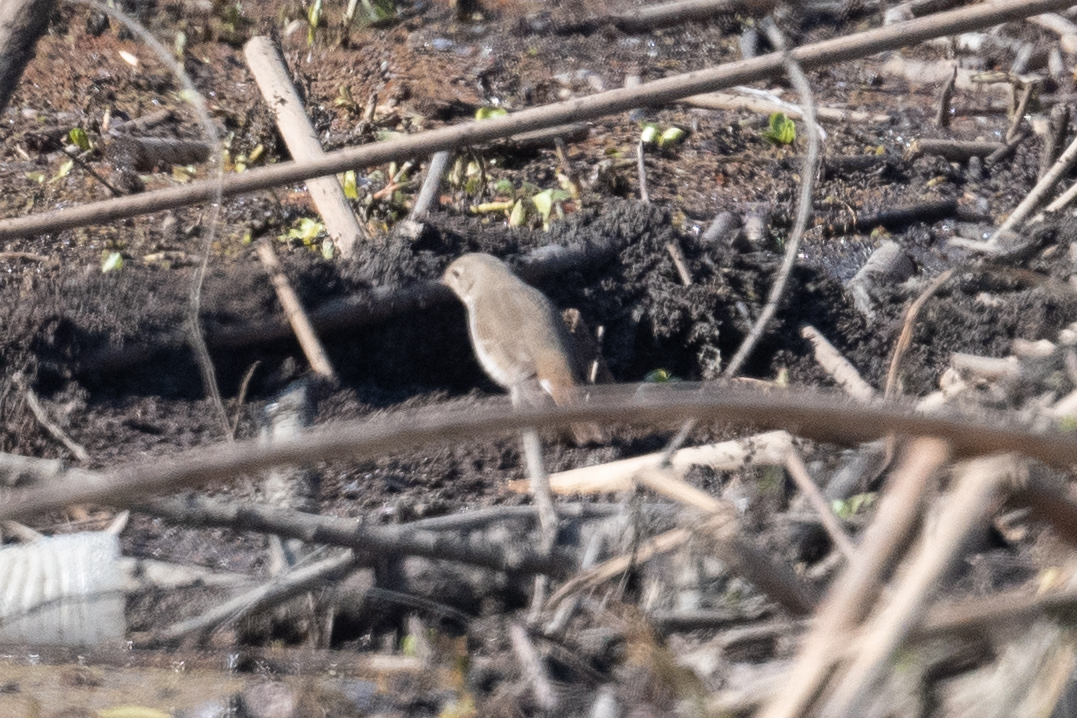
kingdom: Animalia
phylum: Chordata
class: Aves
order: Passeriformes
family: Turdidae
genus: Catharus
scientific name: Catharus guttatus
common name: Hermit thrush
